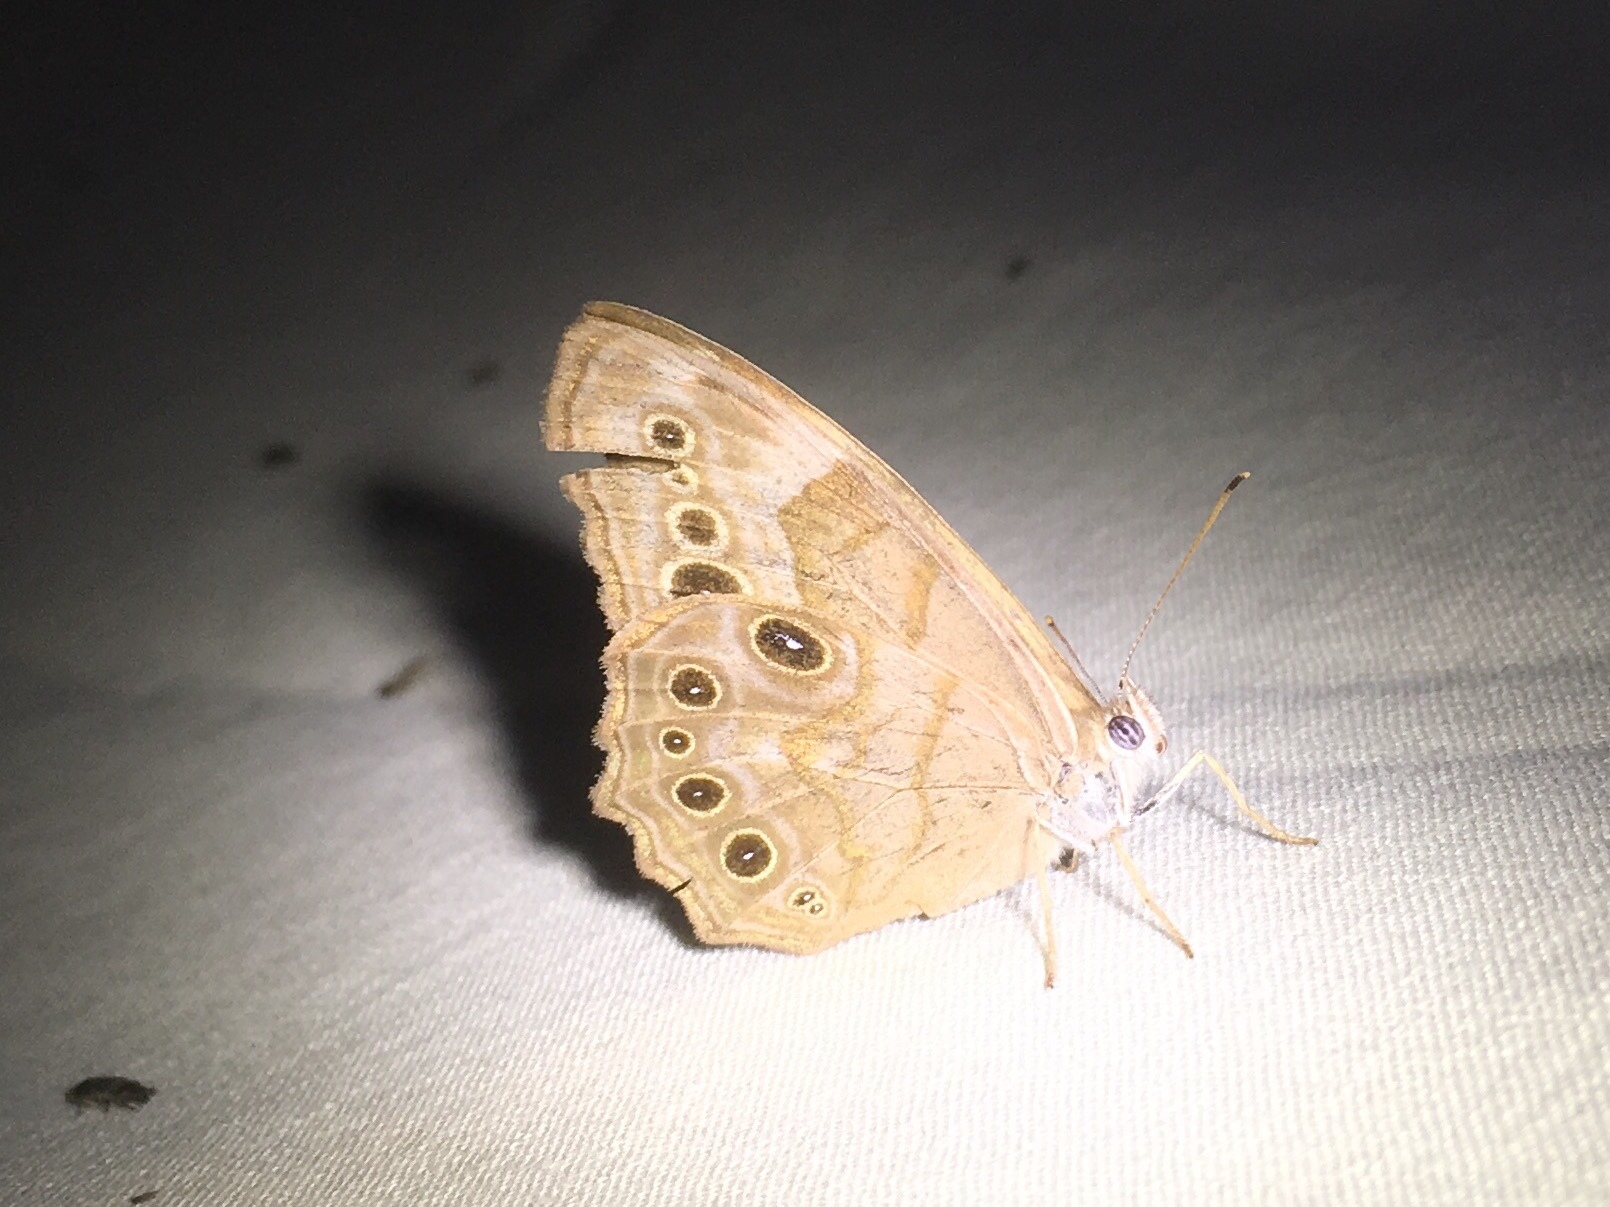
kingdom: Animalia
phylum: Arthropoda
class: Insecta
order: Lepidoptera
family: Nymphalidae
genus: Lethe
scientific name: Lethe anthedon
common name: Northern pearly-eye
